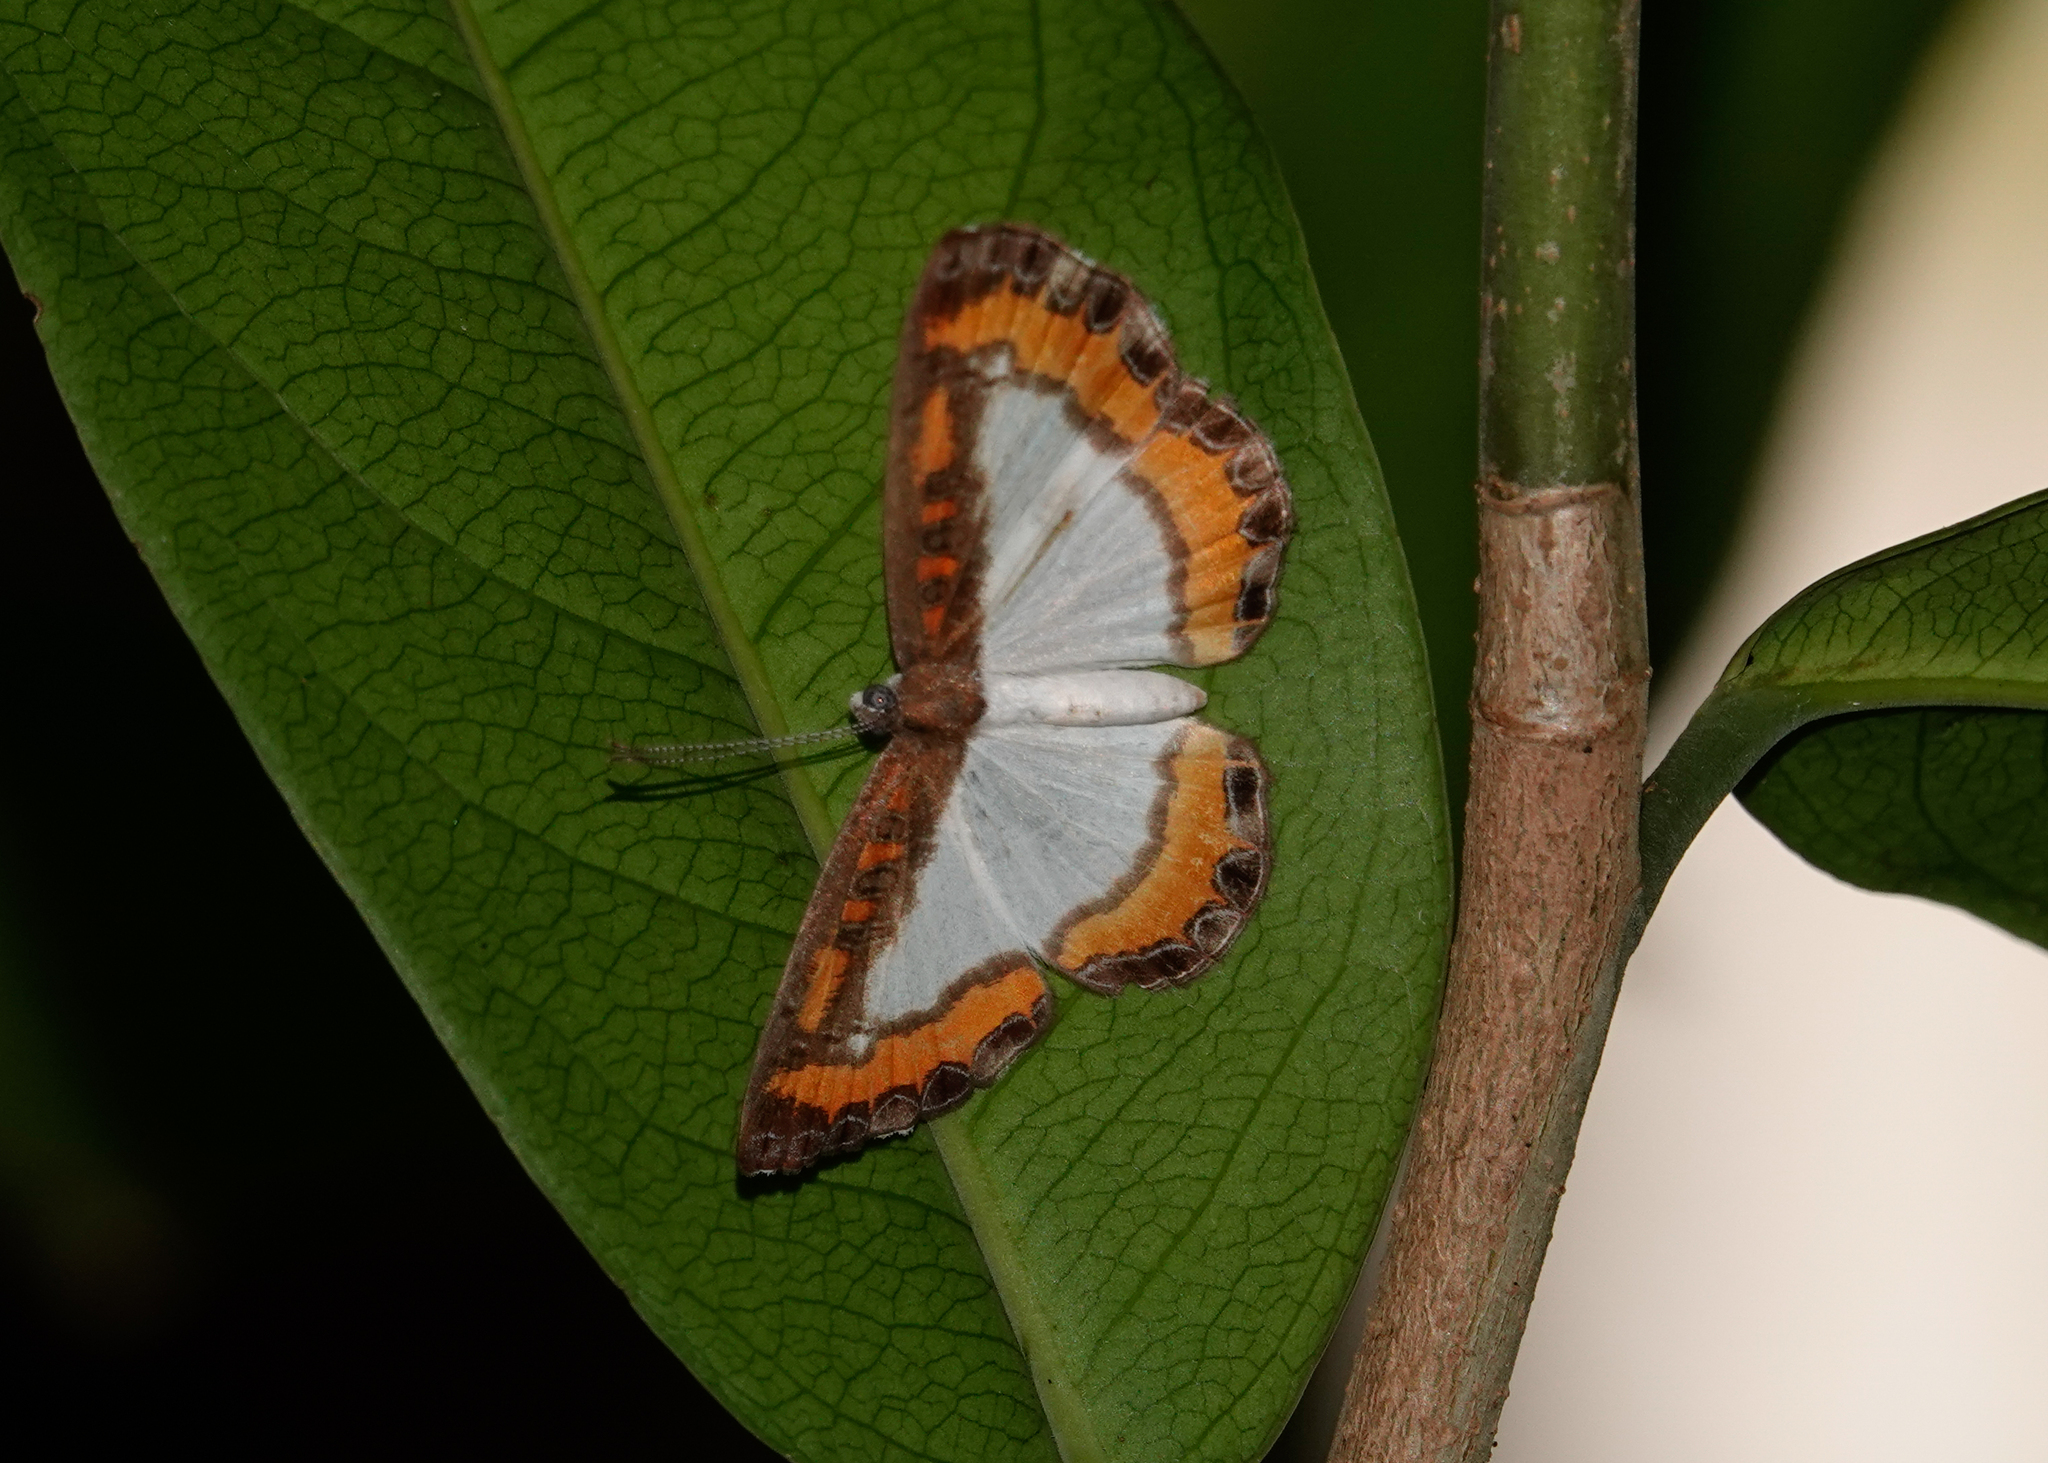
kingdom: Animalia
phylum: Arthropoda
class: Insecta
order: Lepidoptera
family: Riodinidae
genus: Nymula
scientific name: Nymula calyce
